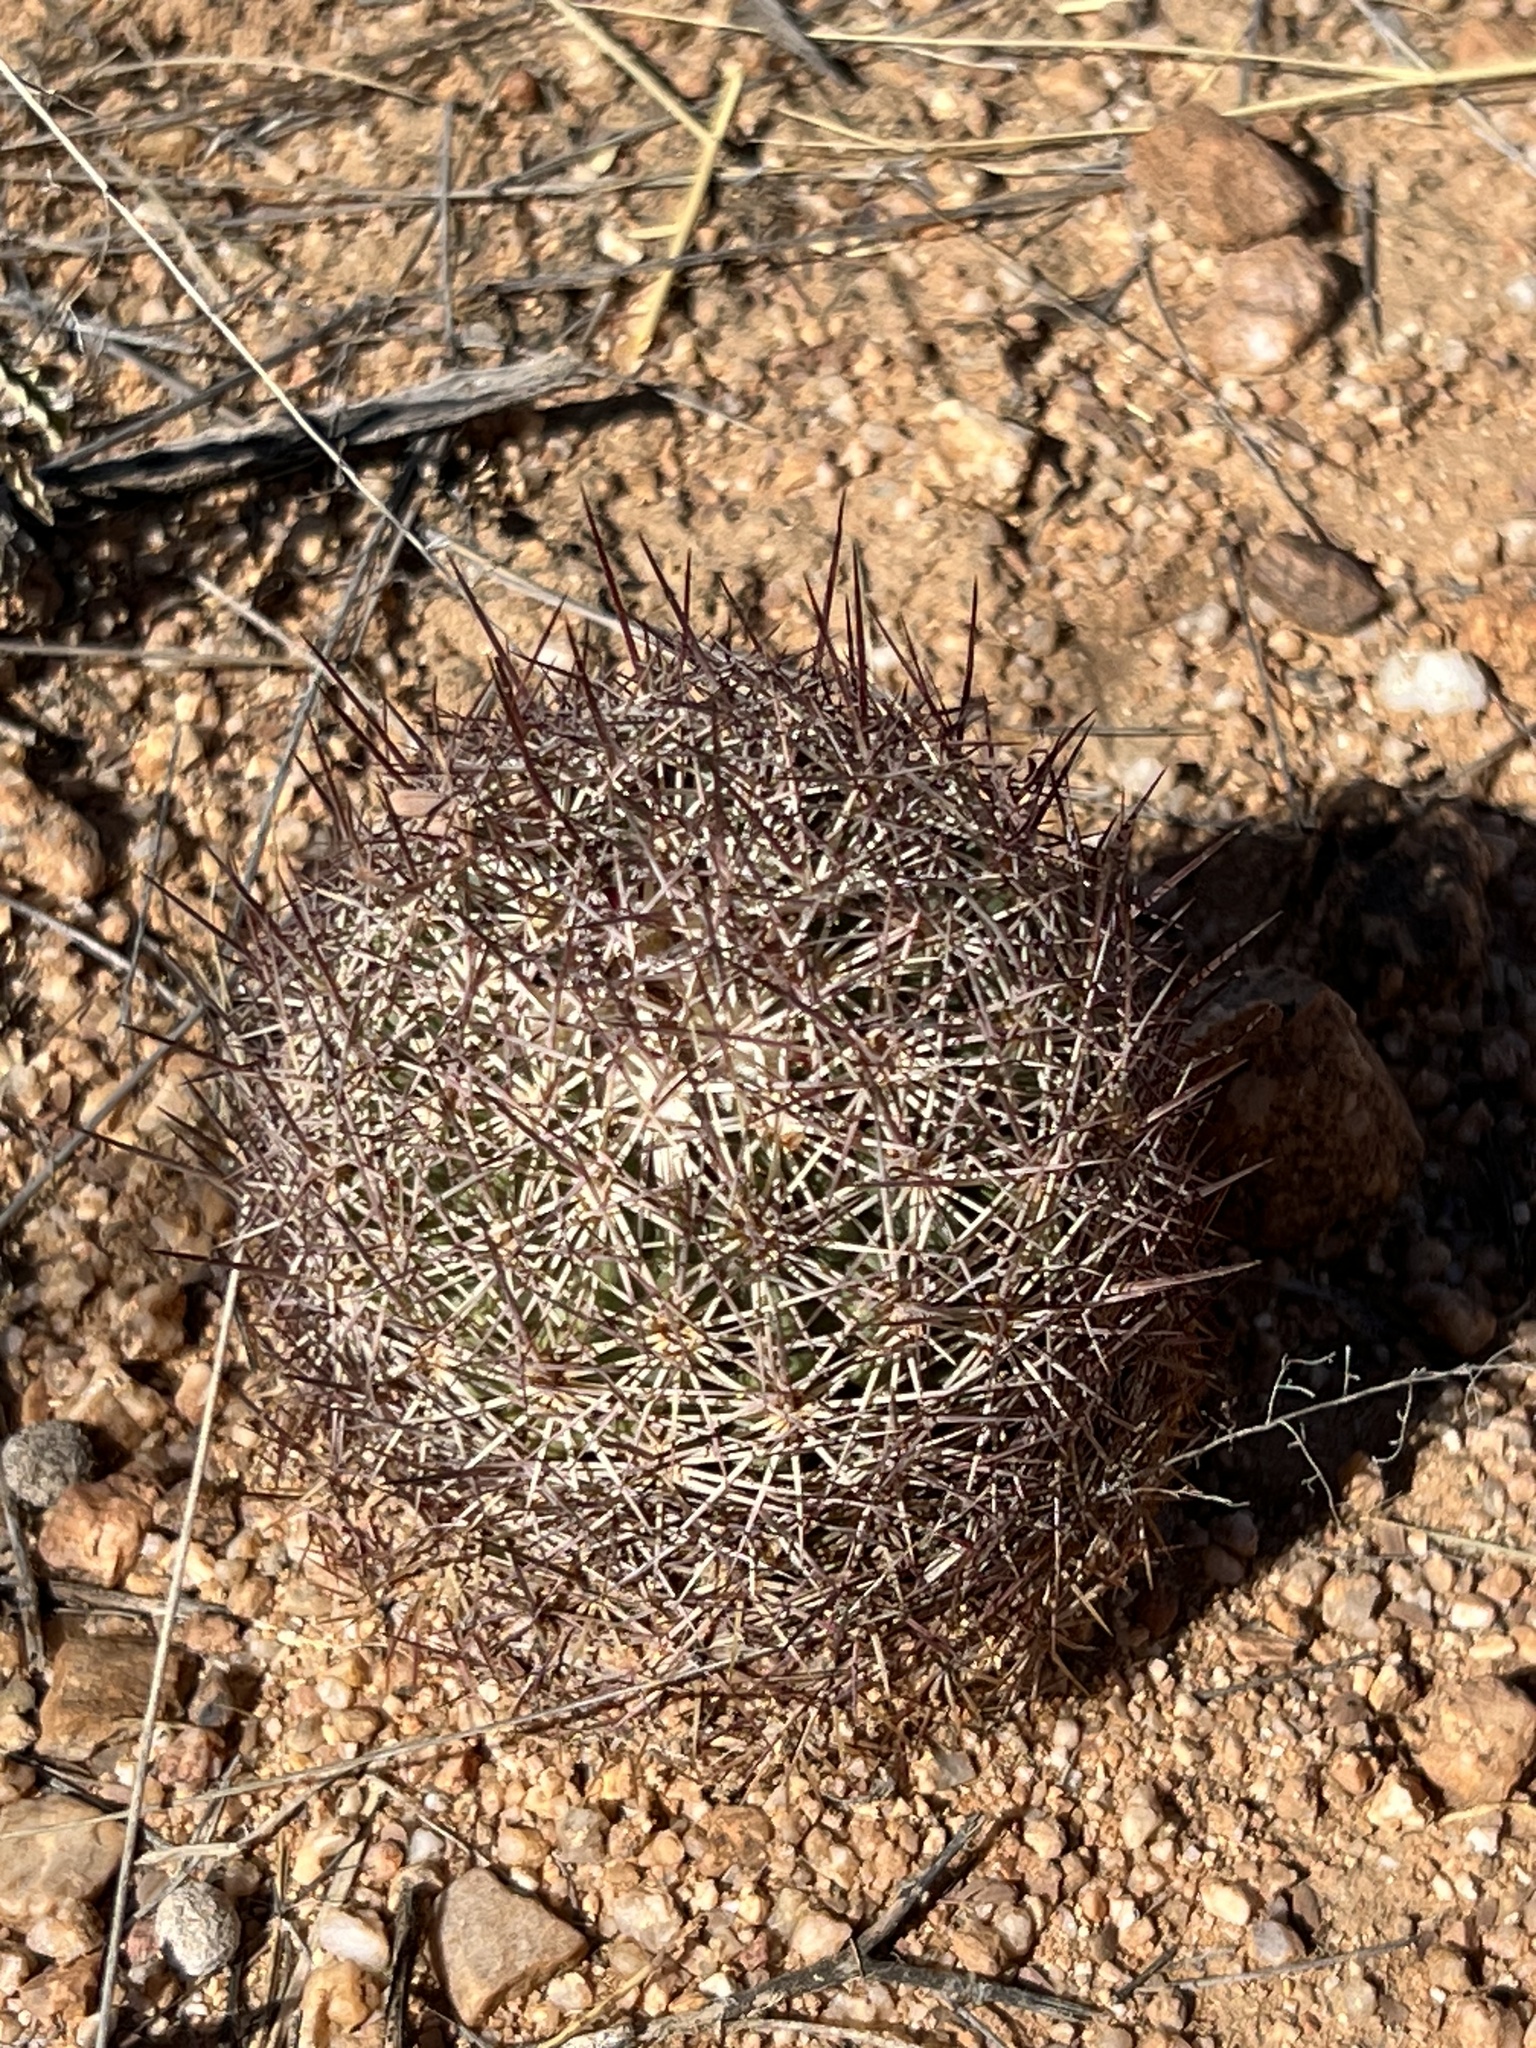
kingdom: Plantae
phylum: Tracheophyta
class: Magnoliopsida
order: Caryophyllales
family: Cactaceae
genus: Sclerocactus
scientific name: Sclerocactus johnsonii
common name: Eight-spine fishhook cactus
